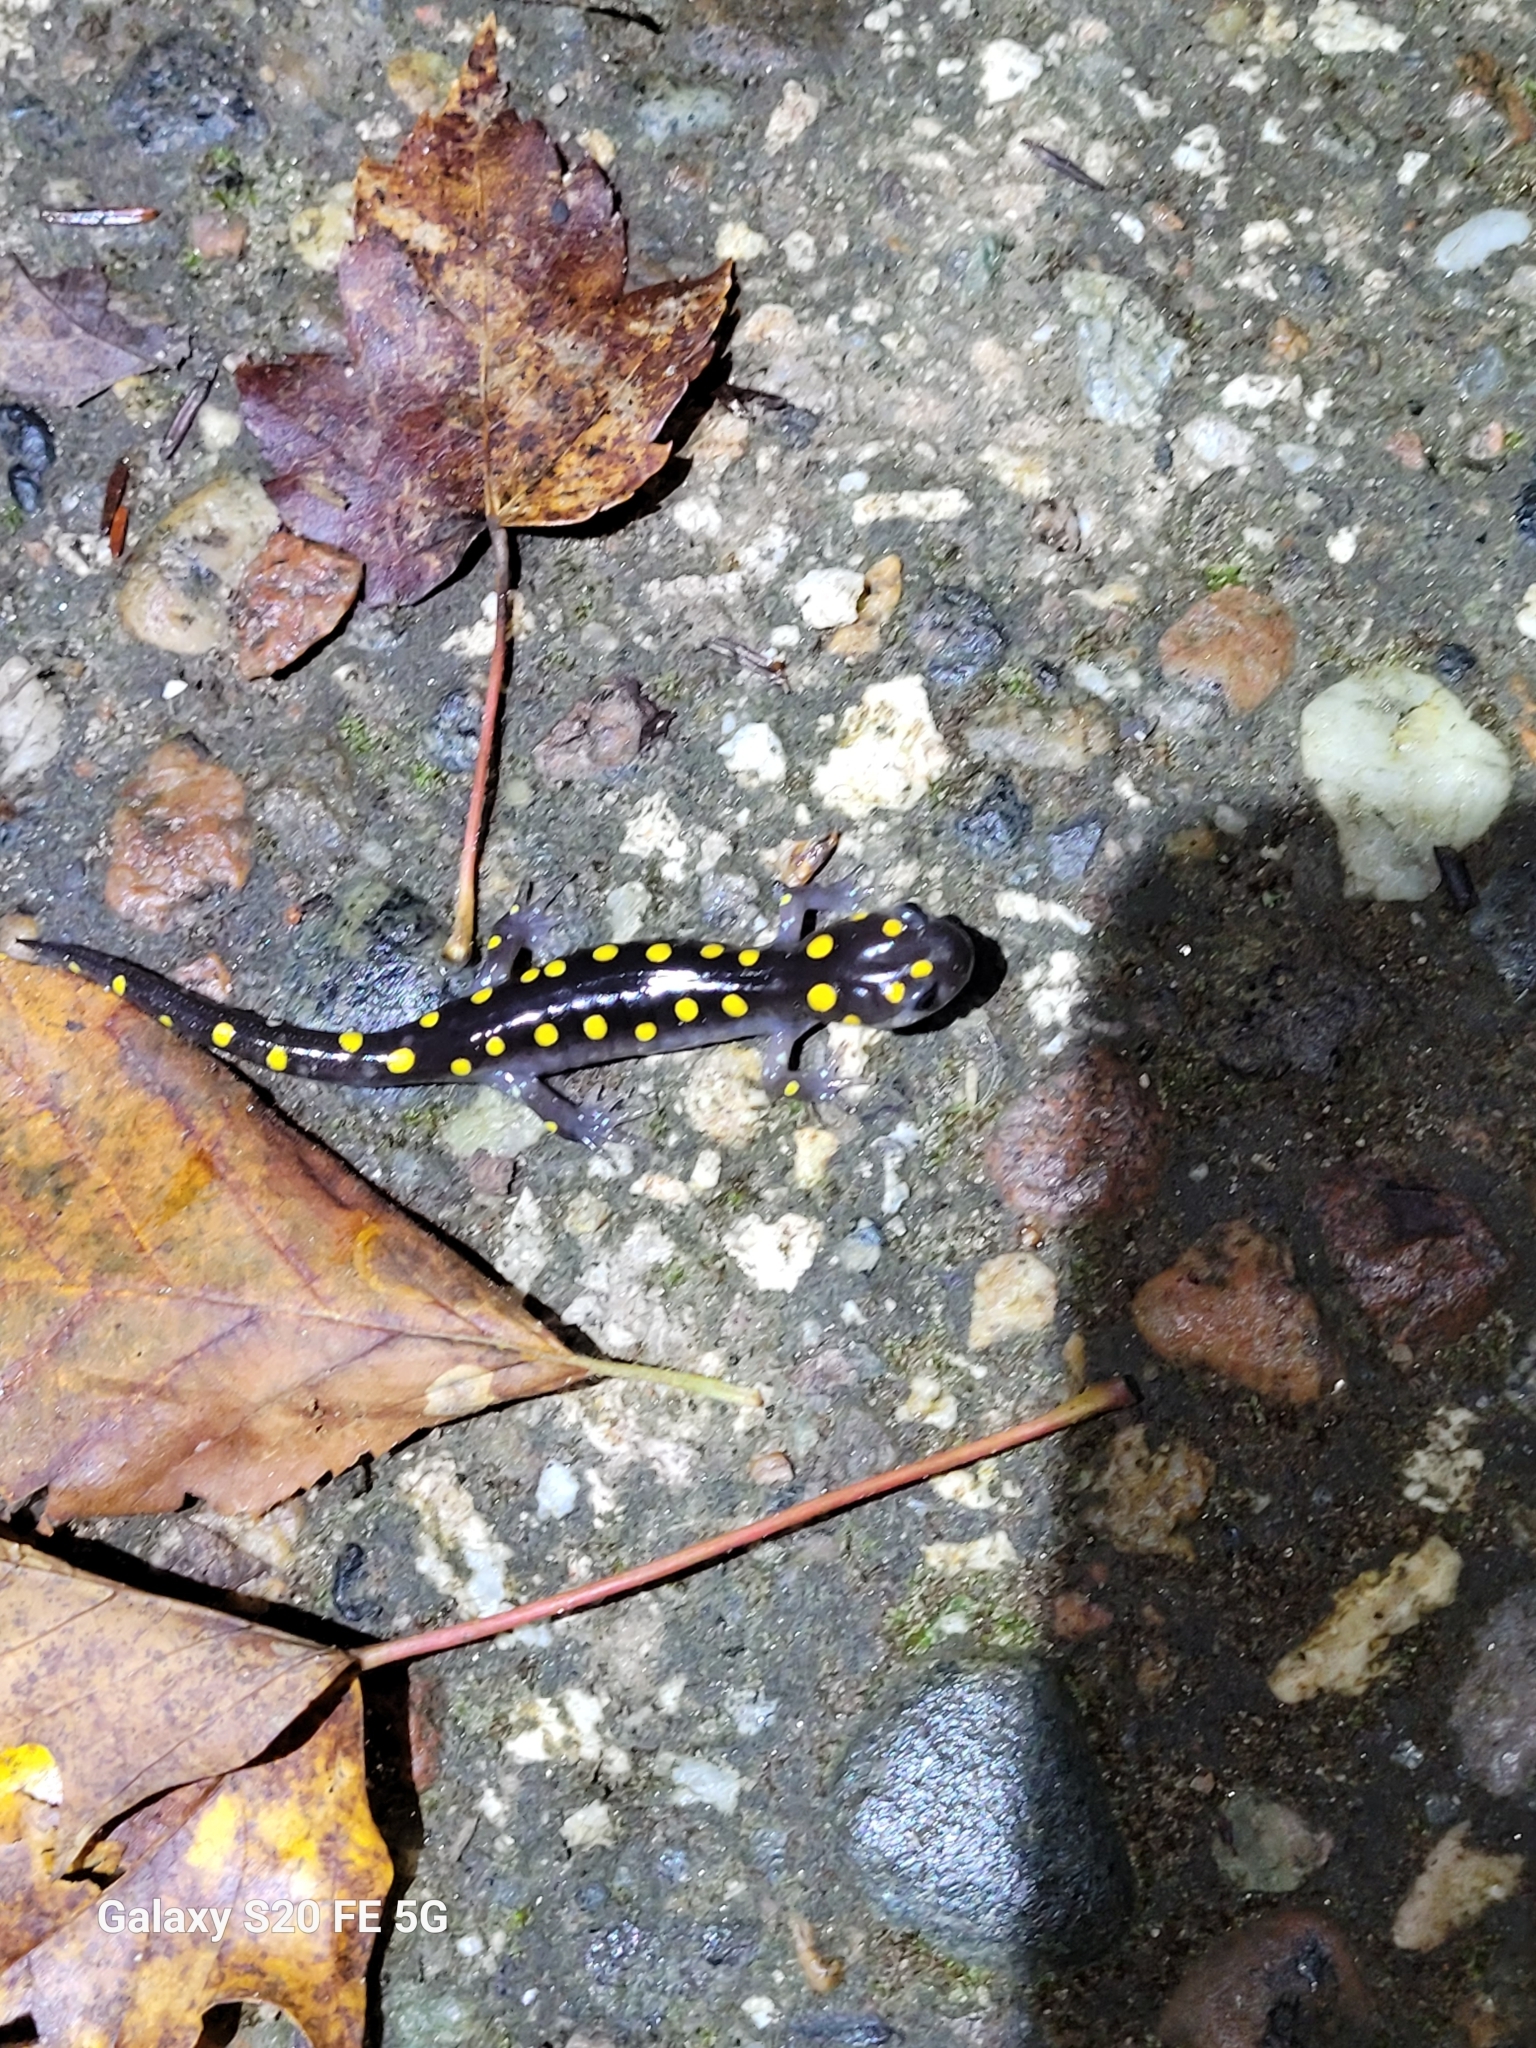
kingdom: Animalia
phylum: Chordata
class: Amphibia
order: Caudata
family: Ambystomatidae
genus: Ambystoma
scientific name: Ambystoma maculatum
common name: Spotted salamander
